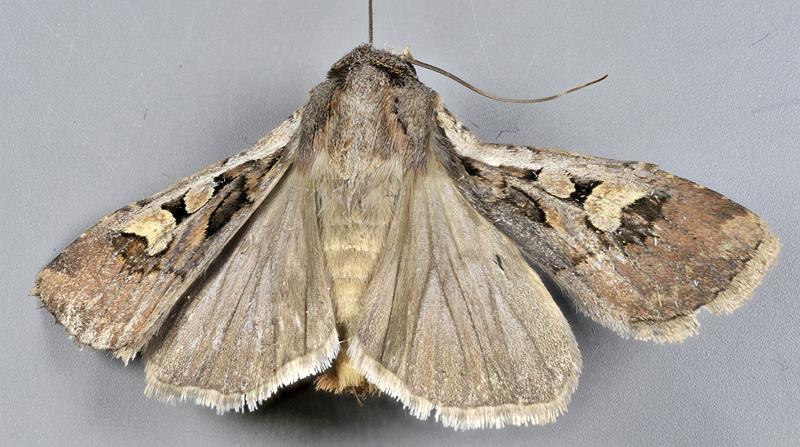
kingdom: Animalia
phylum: Arthropoda
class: Insecta
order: Lepidoptera
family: Noctuidae
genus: Euxoa
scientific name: Euxoa obeliscoides
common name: Obelisk dart moth
